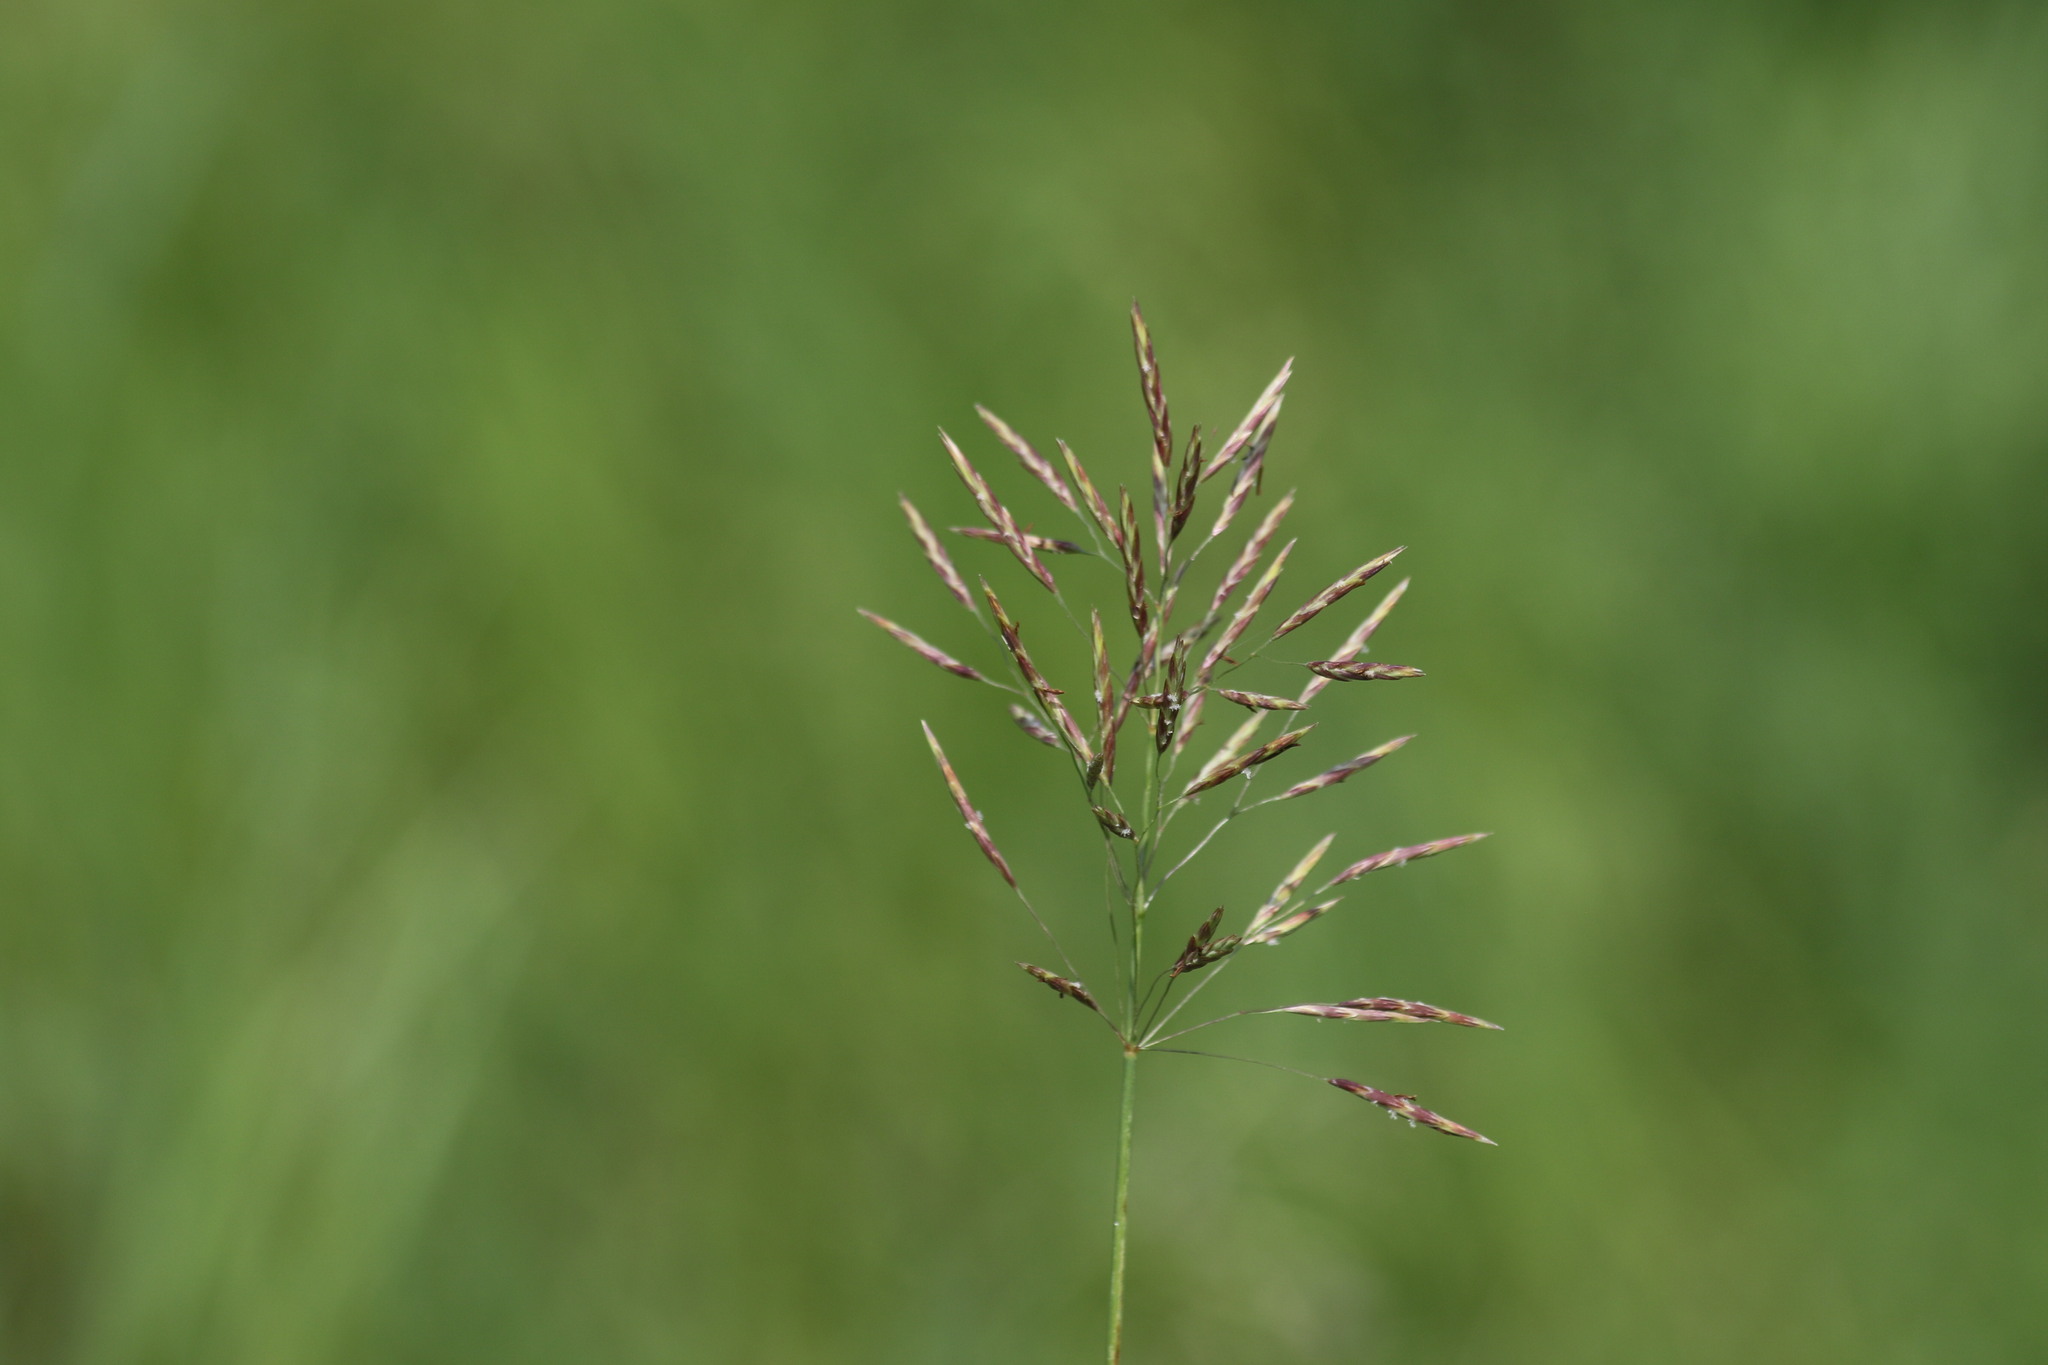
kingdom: Plantae
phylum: Tracheophyta
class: Liliopsida
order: Poales
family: Poaceae
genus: Bromus
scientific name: Bromus inermis
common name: Smooth brome
